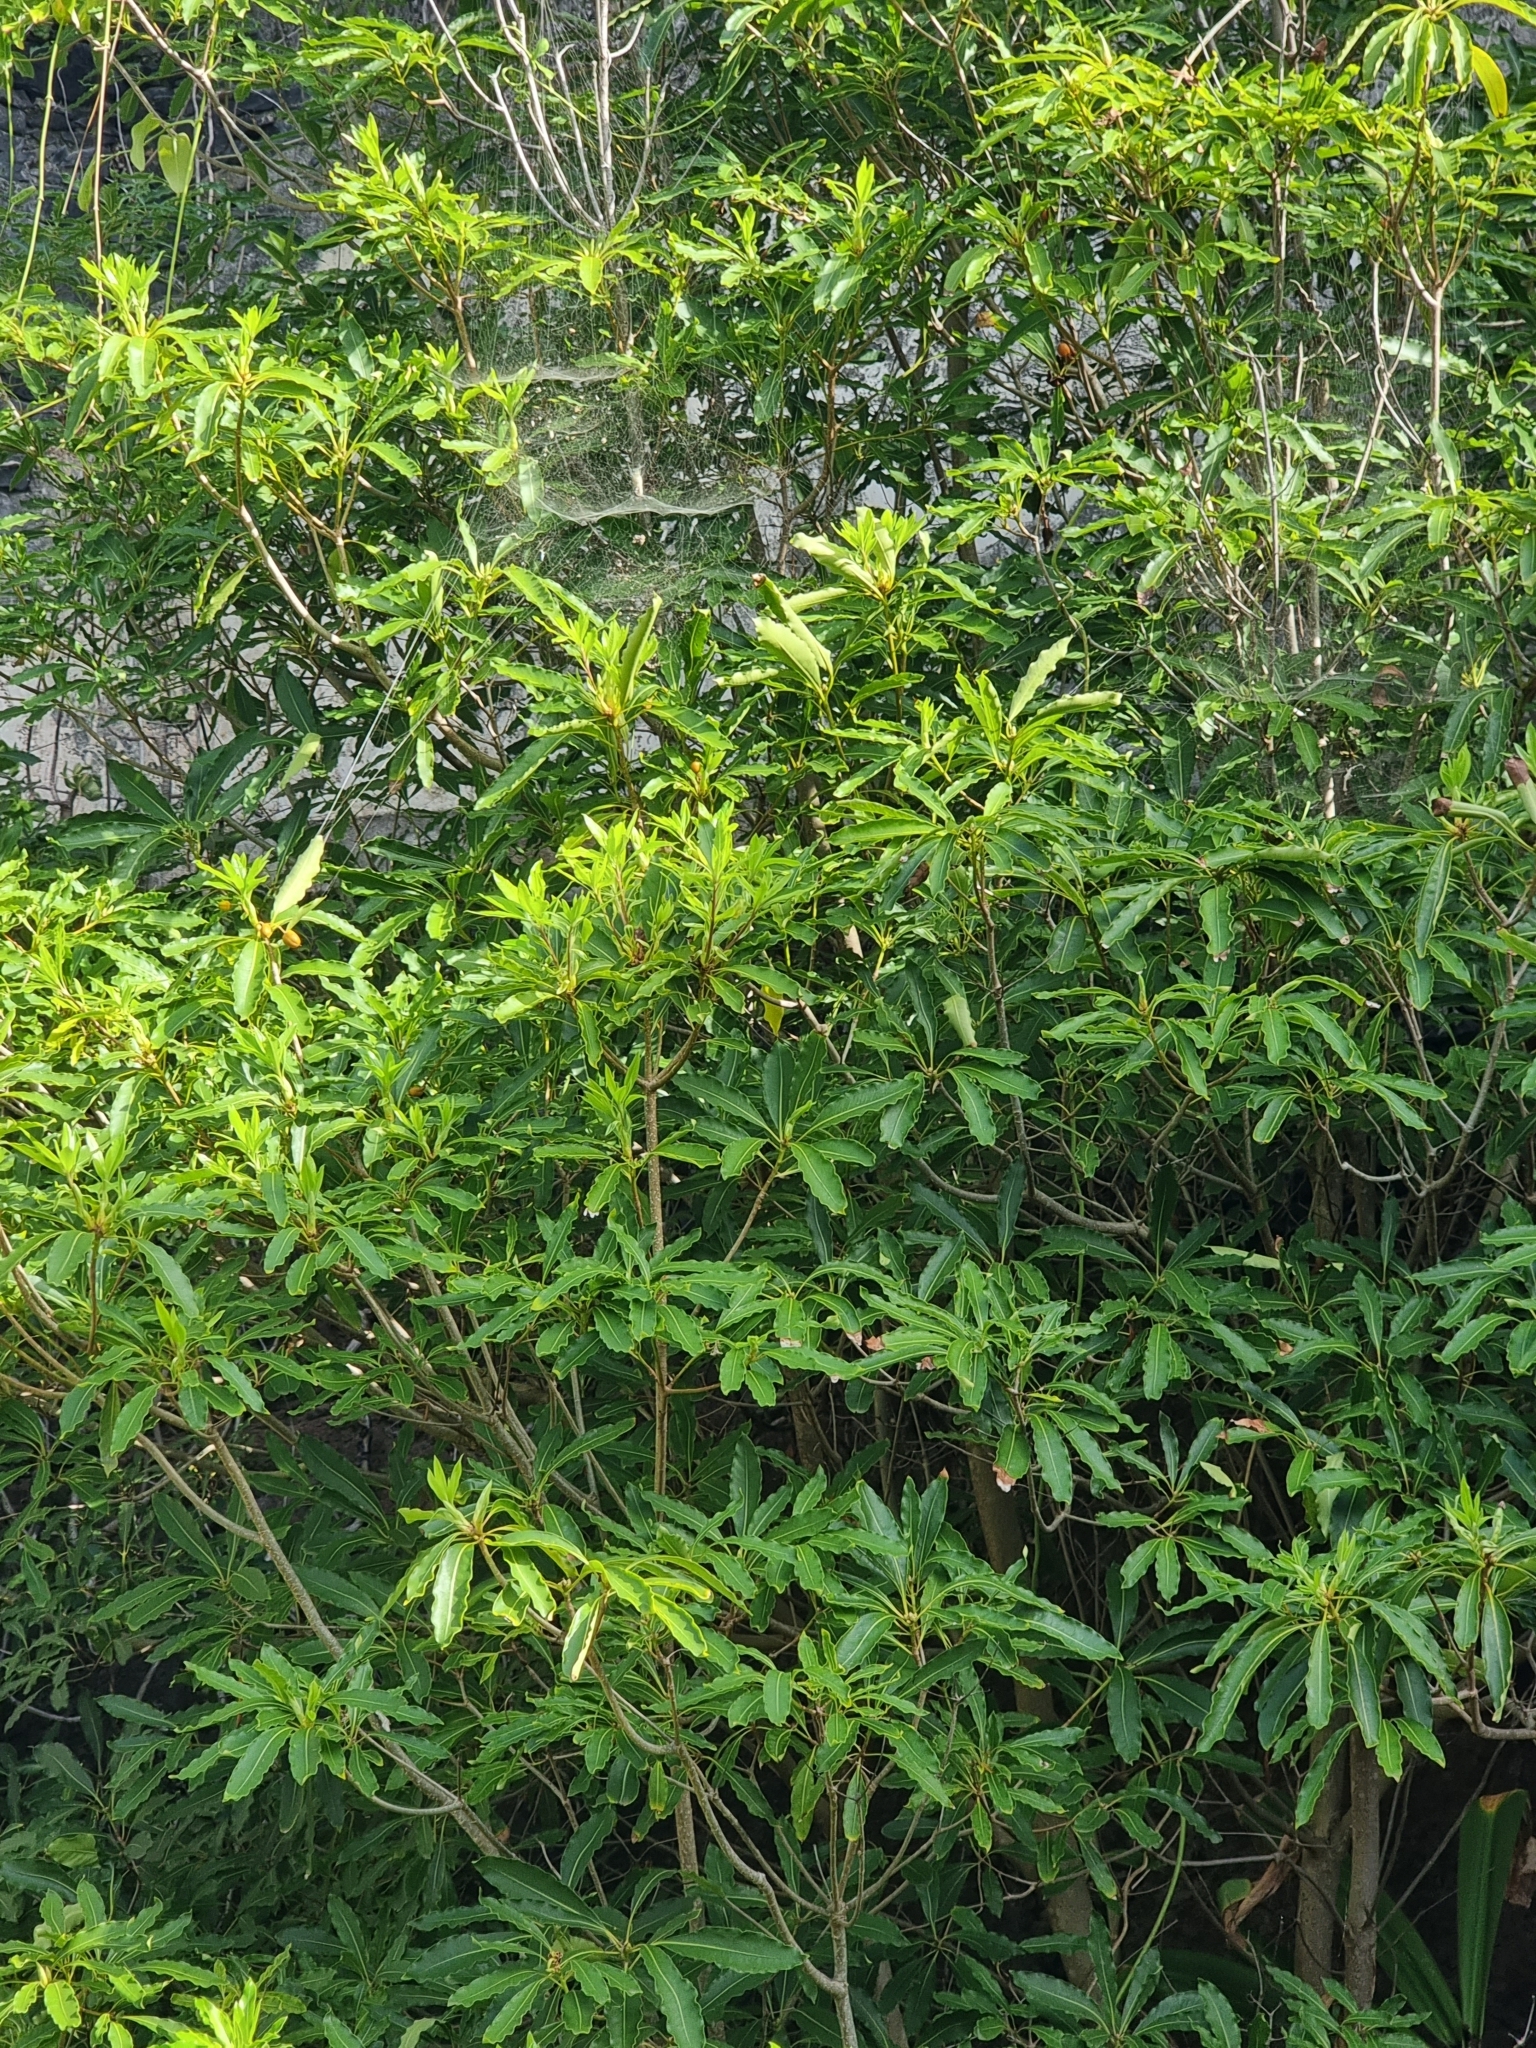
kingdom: Plantae
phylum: Tracheophyta
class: Magnoliopsida
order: Apiales
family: Pittosporaceae
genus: Pittosporum
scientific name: Pittosporum undulatum
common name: Australian cheesewood
